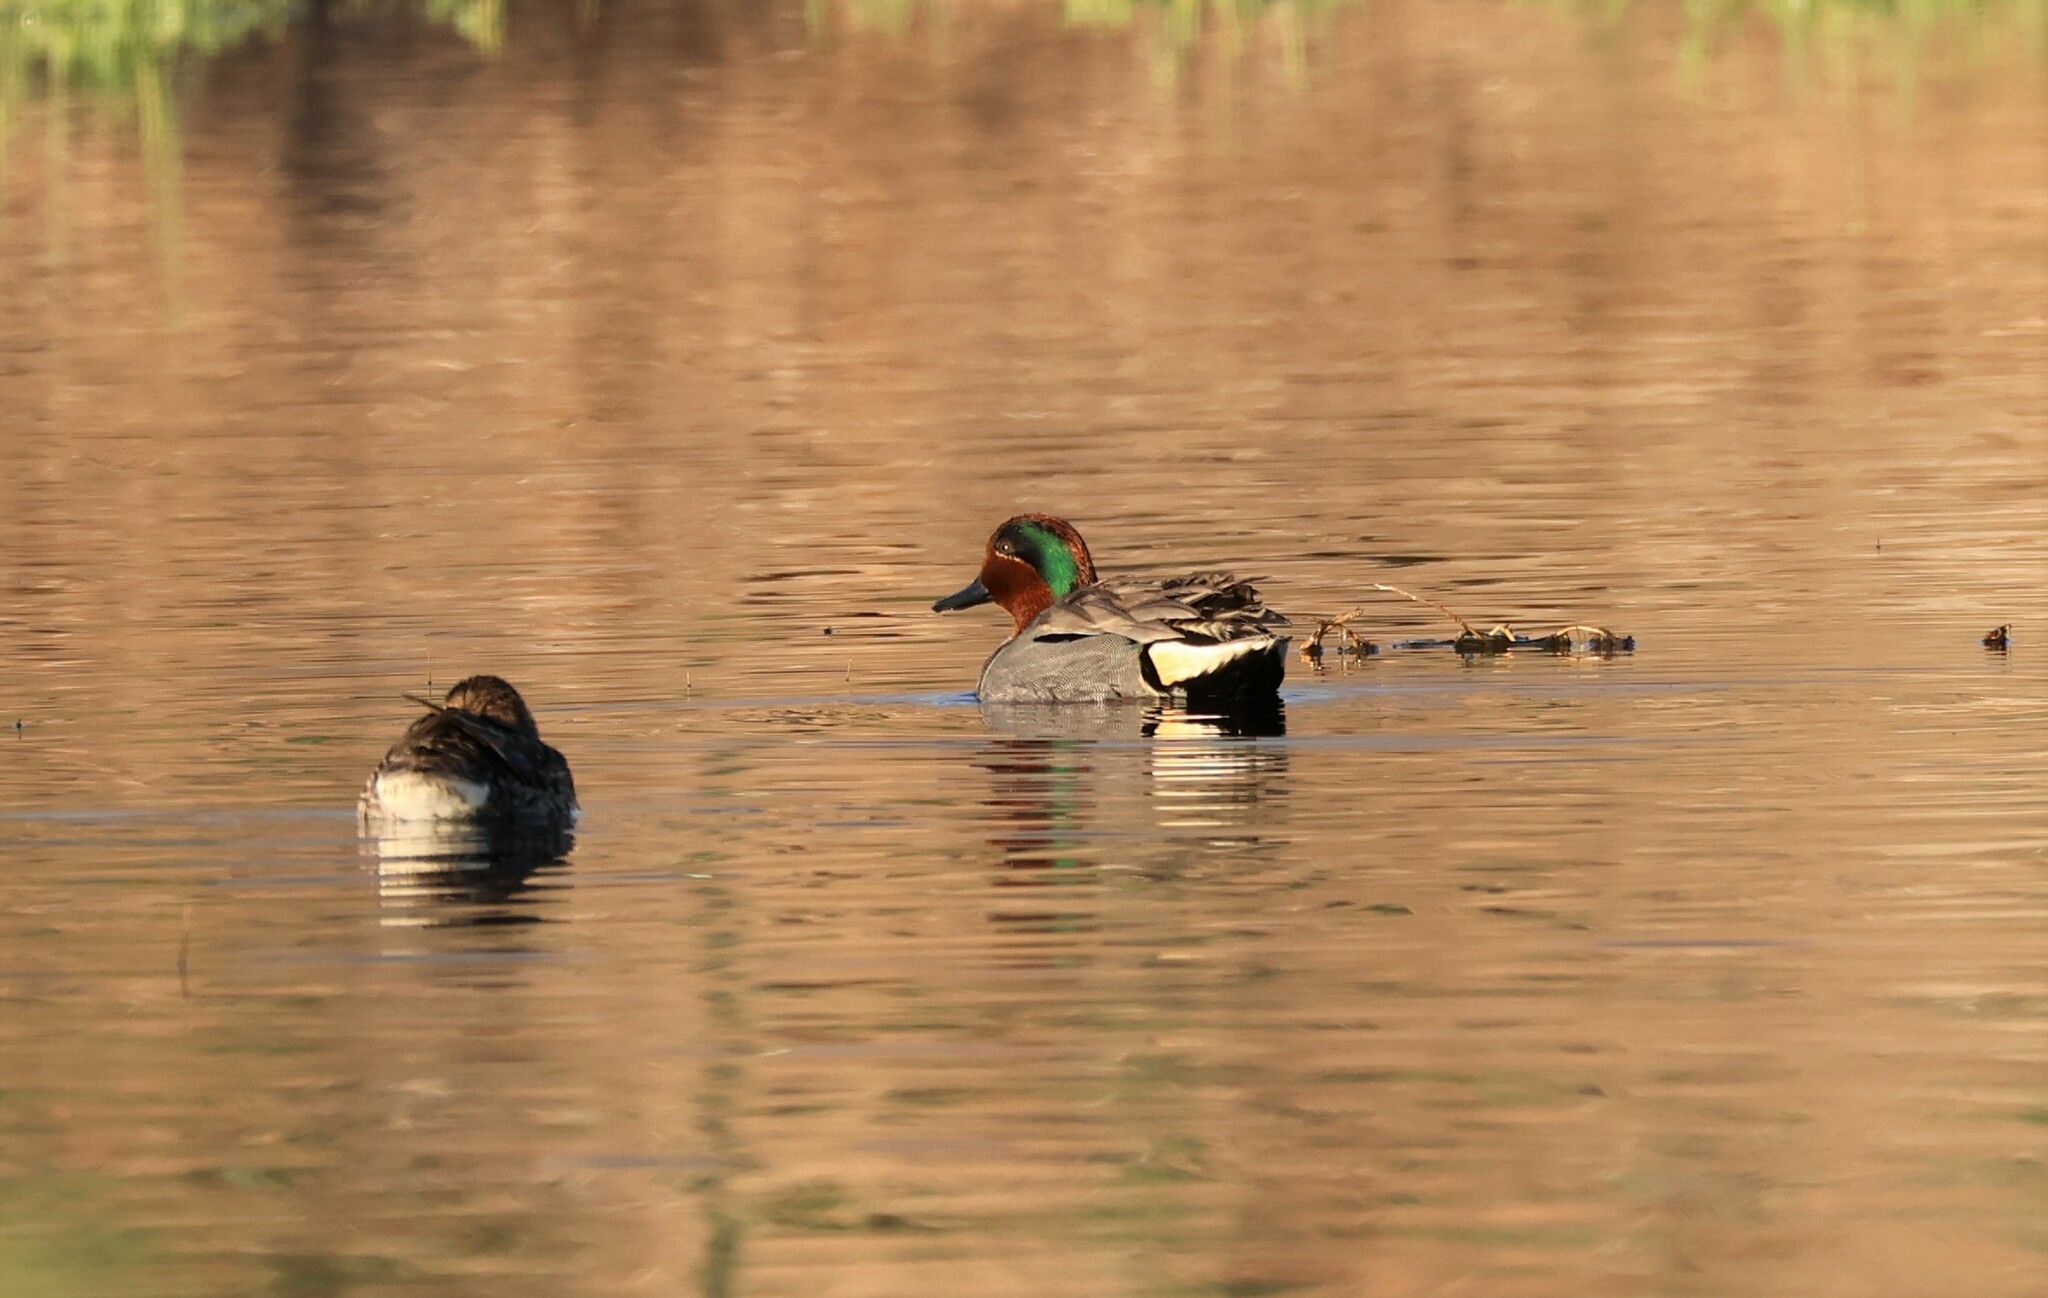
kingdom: Animalia
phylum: Chordata
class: Aves
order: Anseriformes
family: Anatidae
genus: Anas
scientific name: Anas crecca
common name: Eurasian teal
